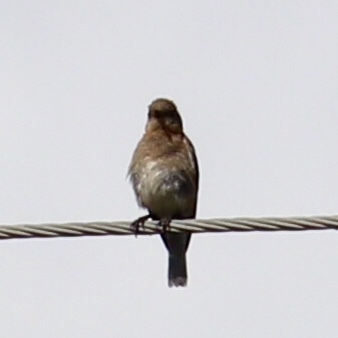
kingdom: Animalia
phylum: Chordata
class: Aves
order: Passeriformes
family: Turdidae
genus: Sialia
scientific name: Sialia sialis
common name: Eastern bluebird
